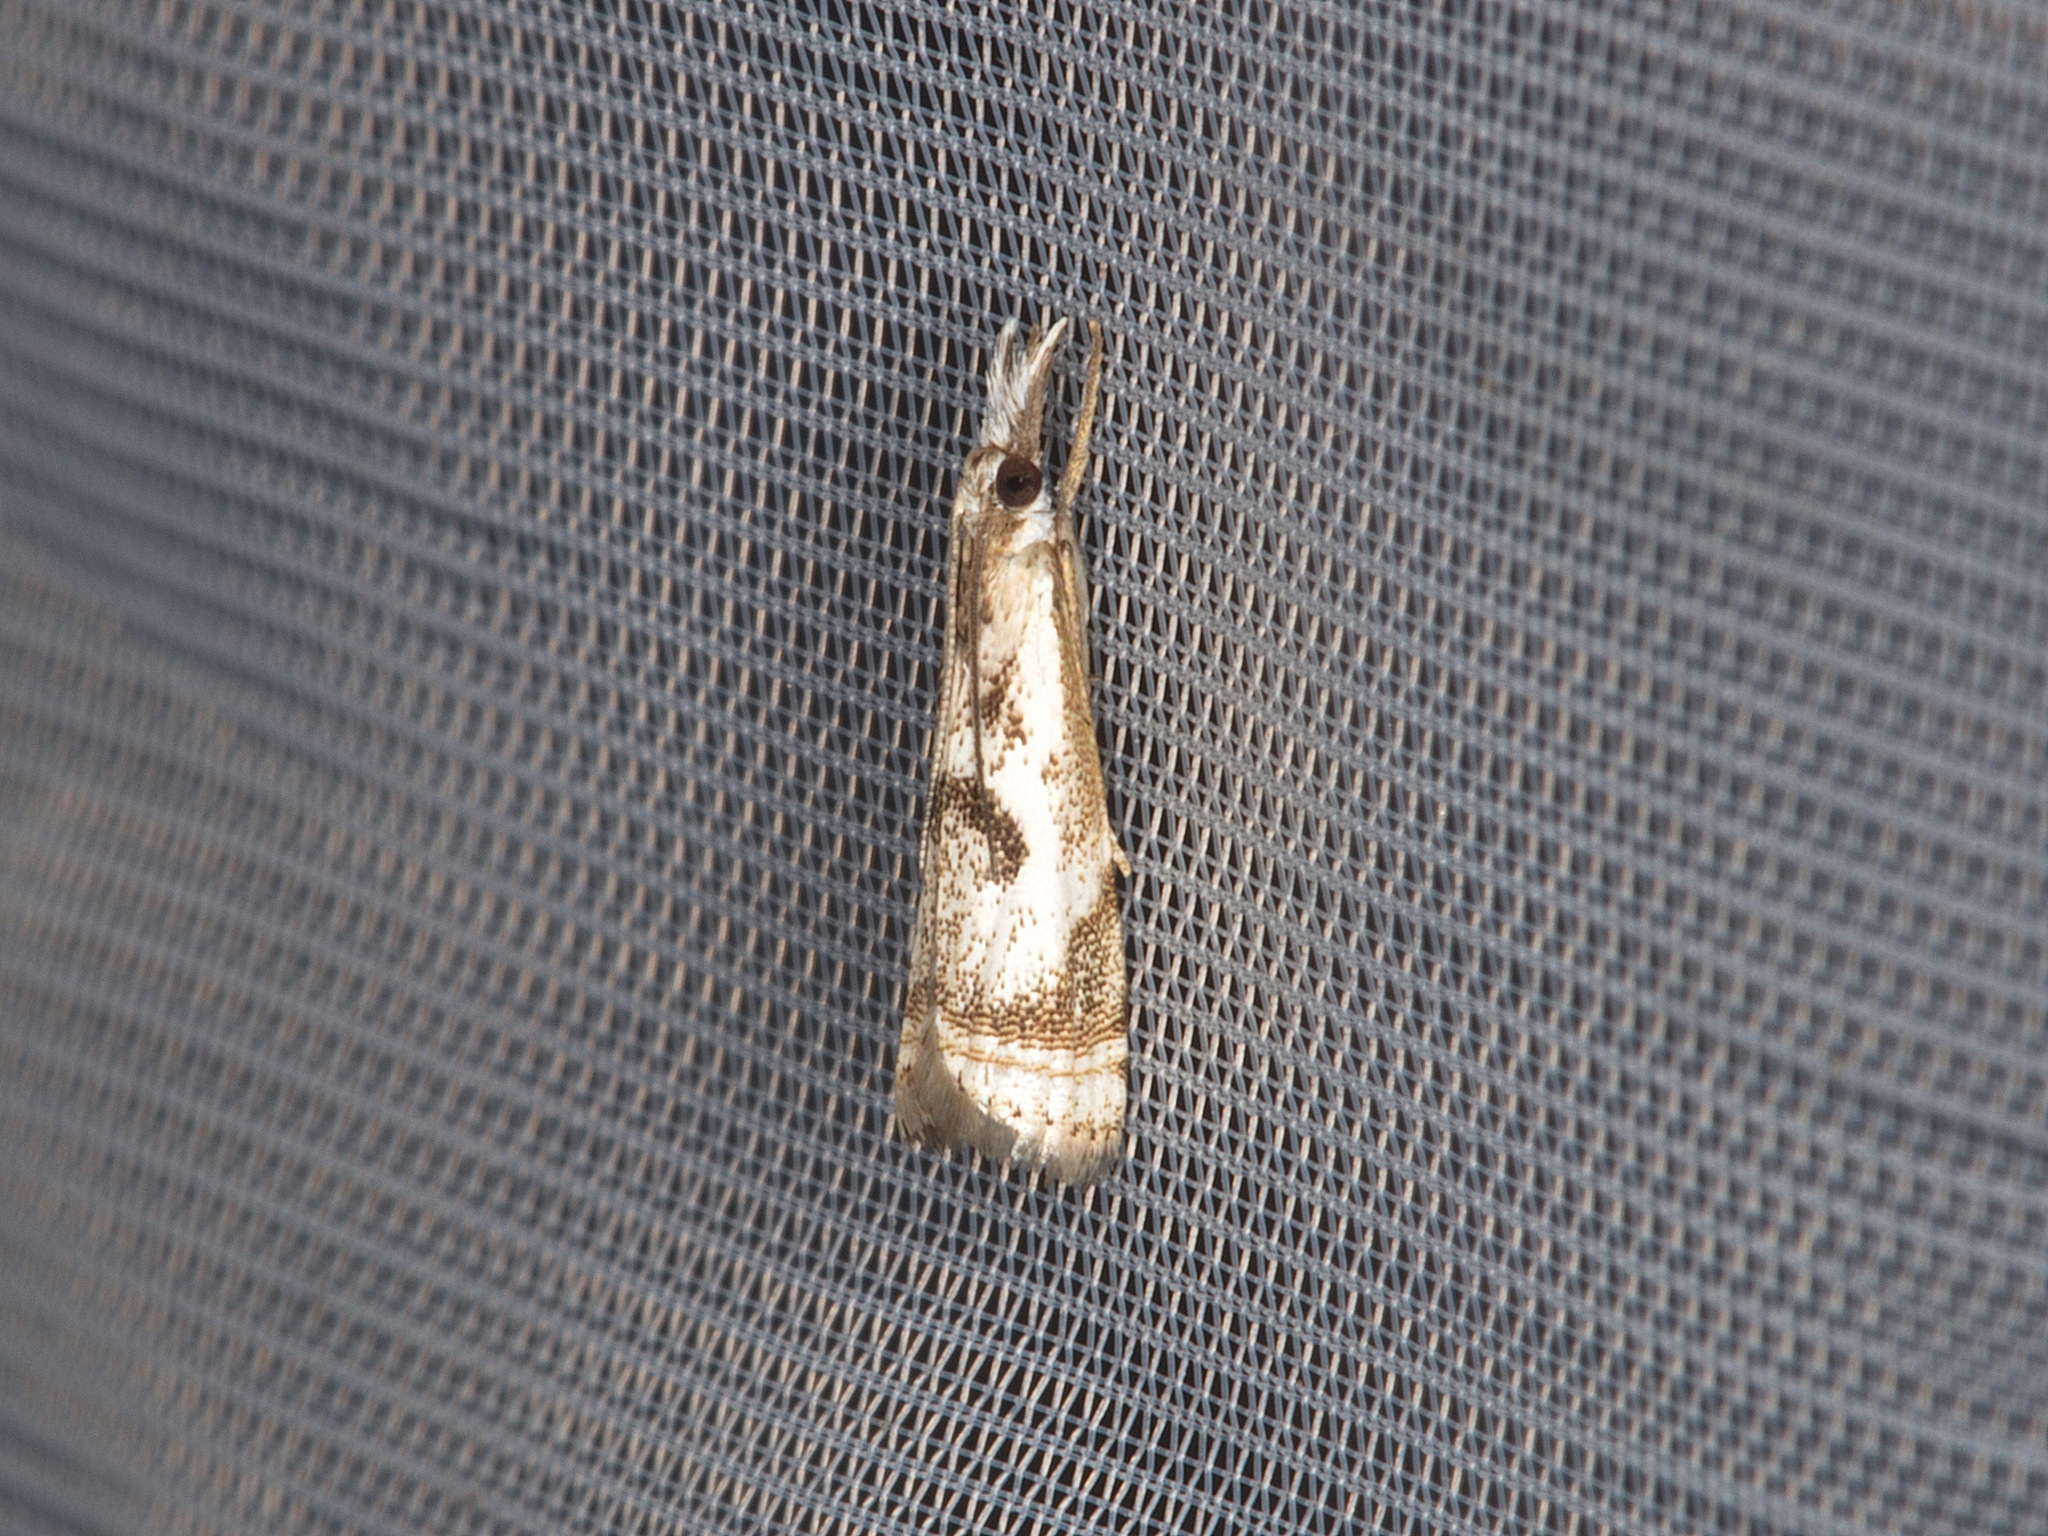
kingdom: Animalia
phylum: Arthropoda
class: Insecta
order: Lepidoptera
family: Crambidae
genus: Microcrambus
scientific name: Microcrambus elegans
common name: Elegant grass-veneer
